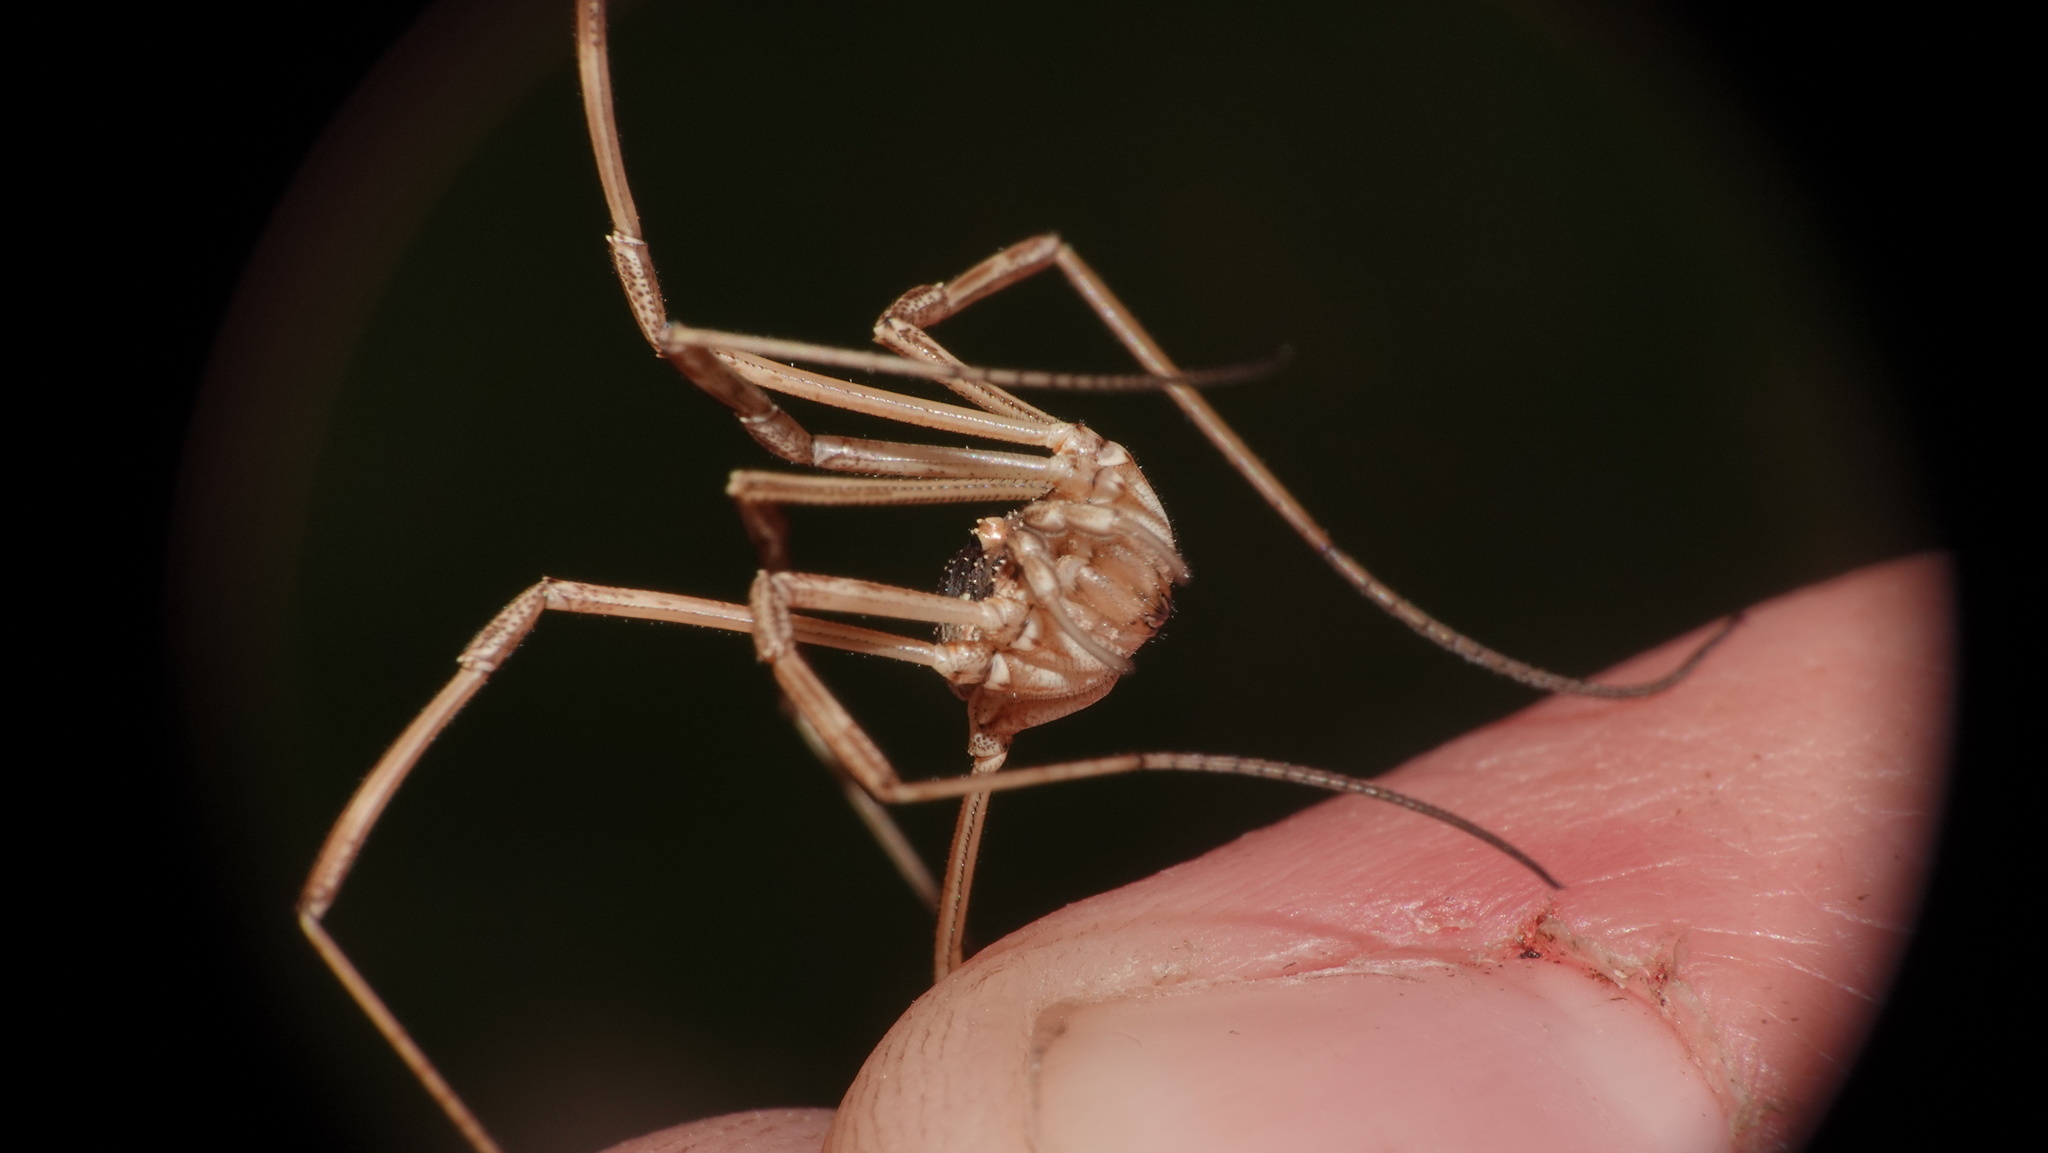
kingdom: Animalia
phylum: Arthropoda
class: Arachnida
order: Opiliones
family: Phalangiidae
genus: Mitopus
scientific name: Mitopus morio
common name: Saddleback harvestman
